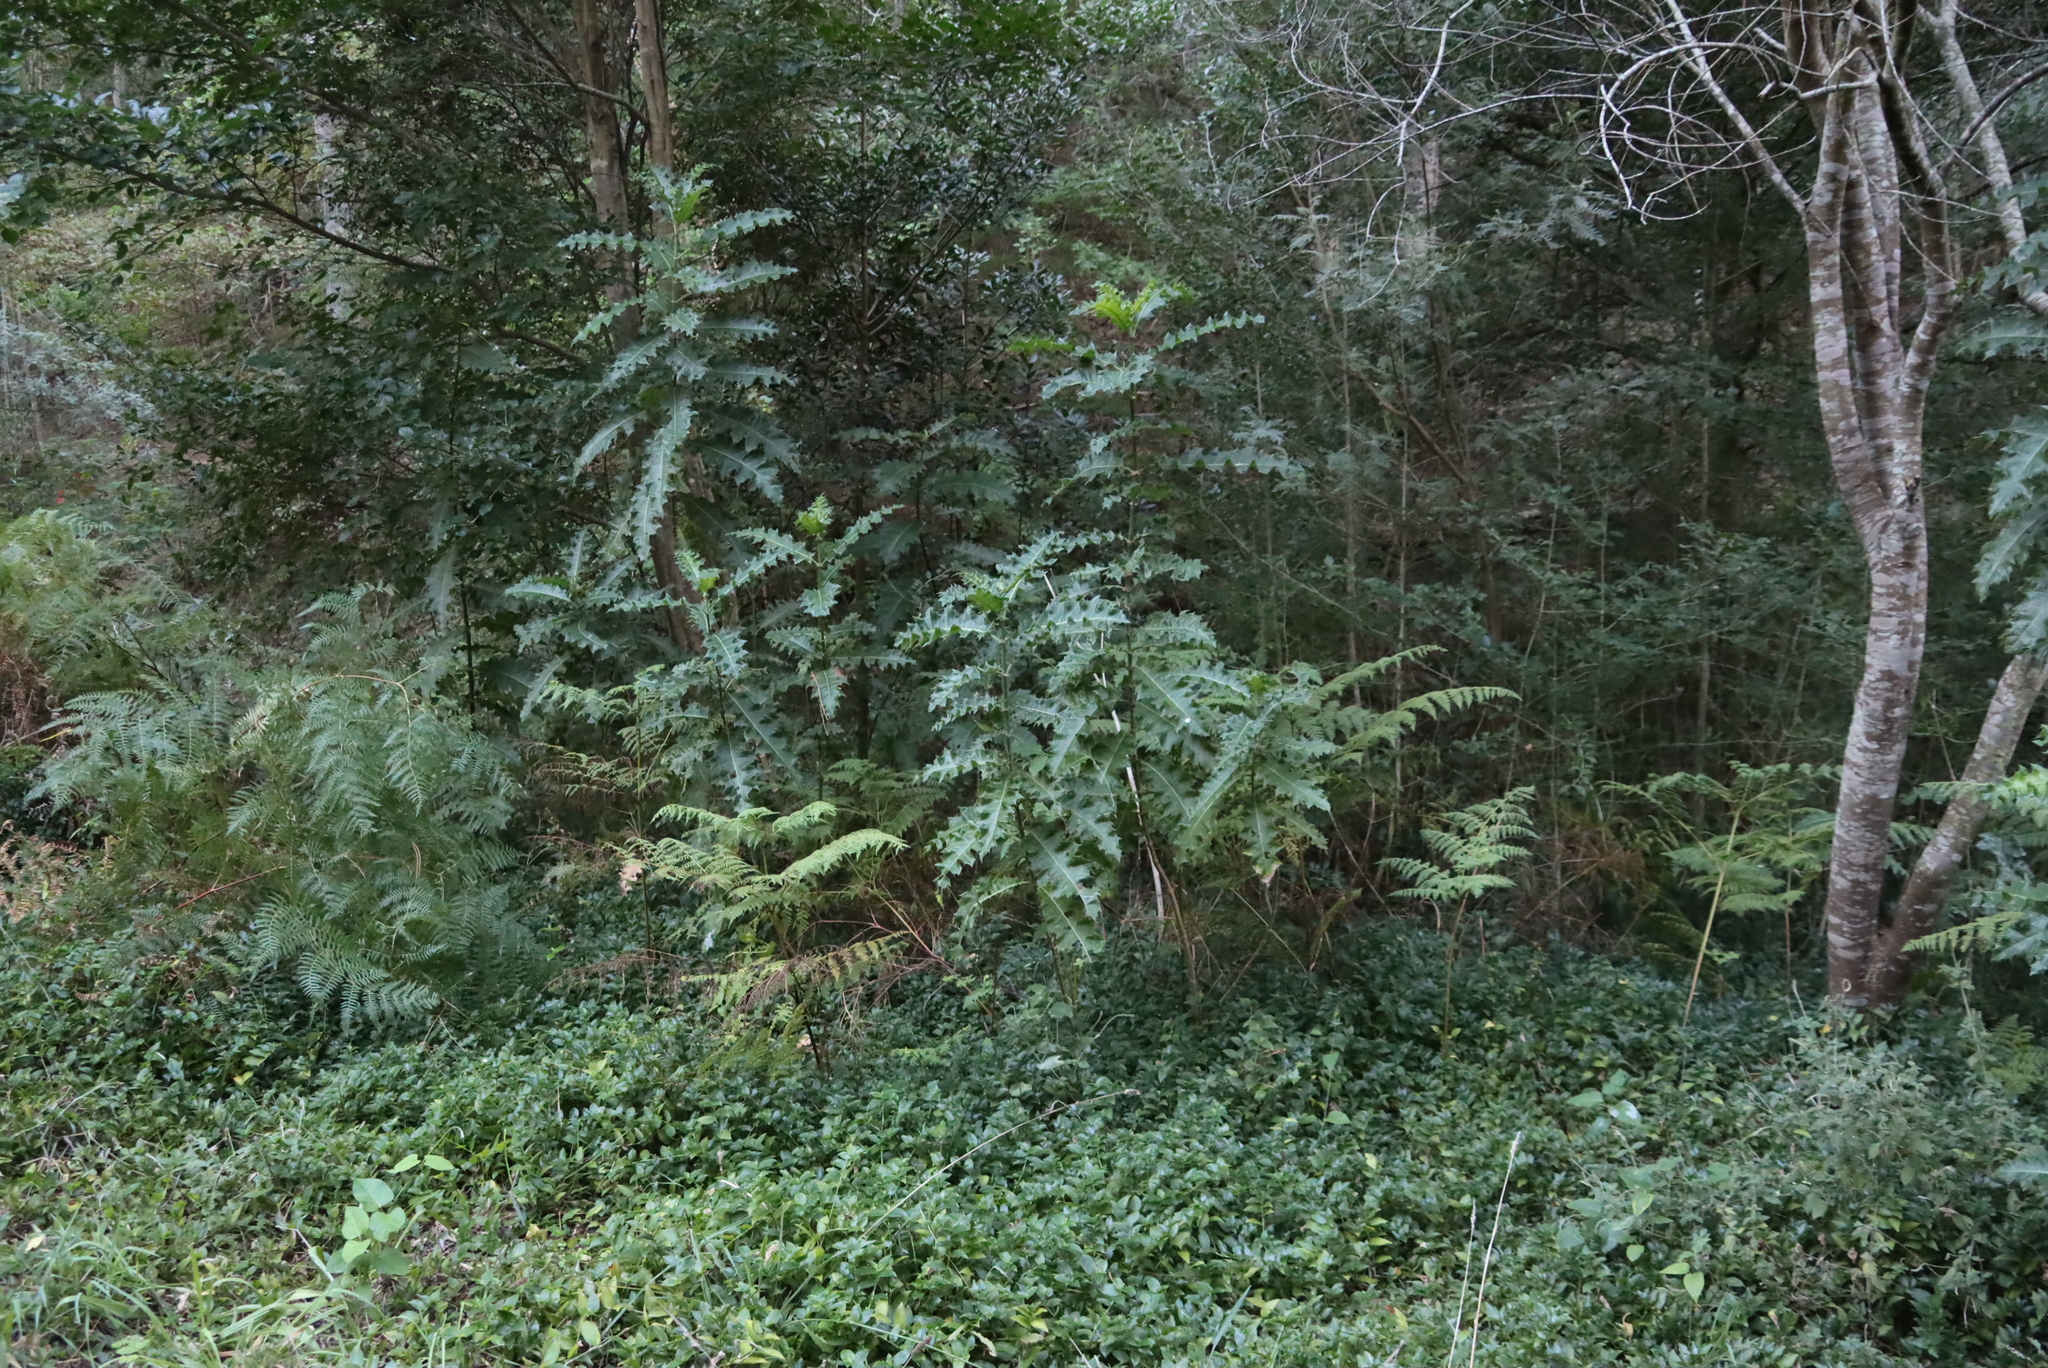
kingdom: Plantae
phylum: Tracheophyta
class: Magnoliopsida
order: Lamiales
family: Acanthaceae
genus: Acanthus
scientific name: Acanthus polystachyus
